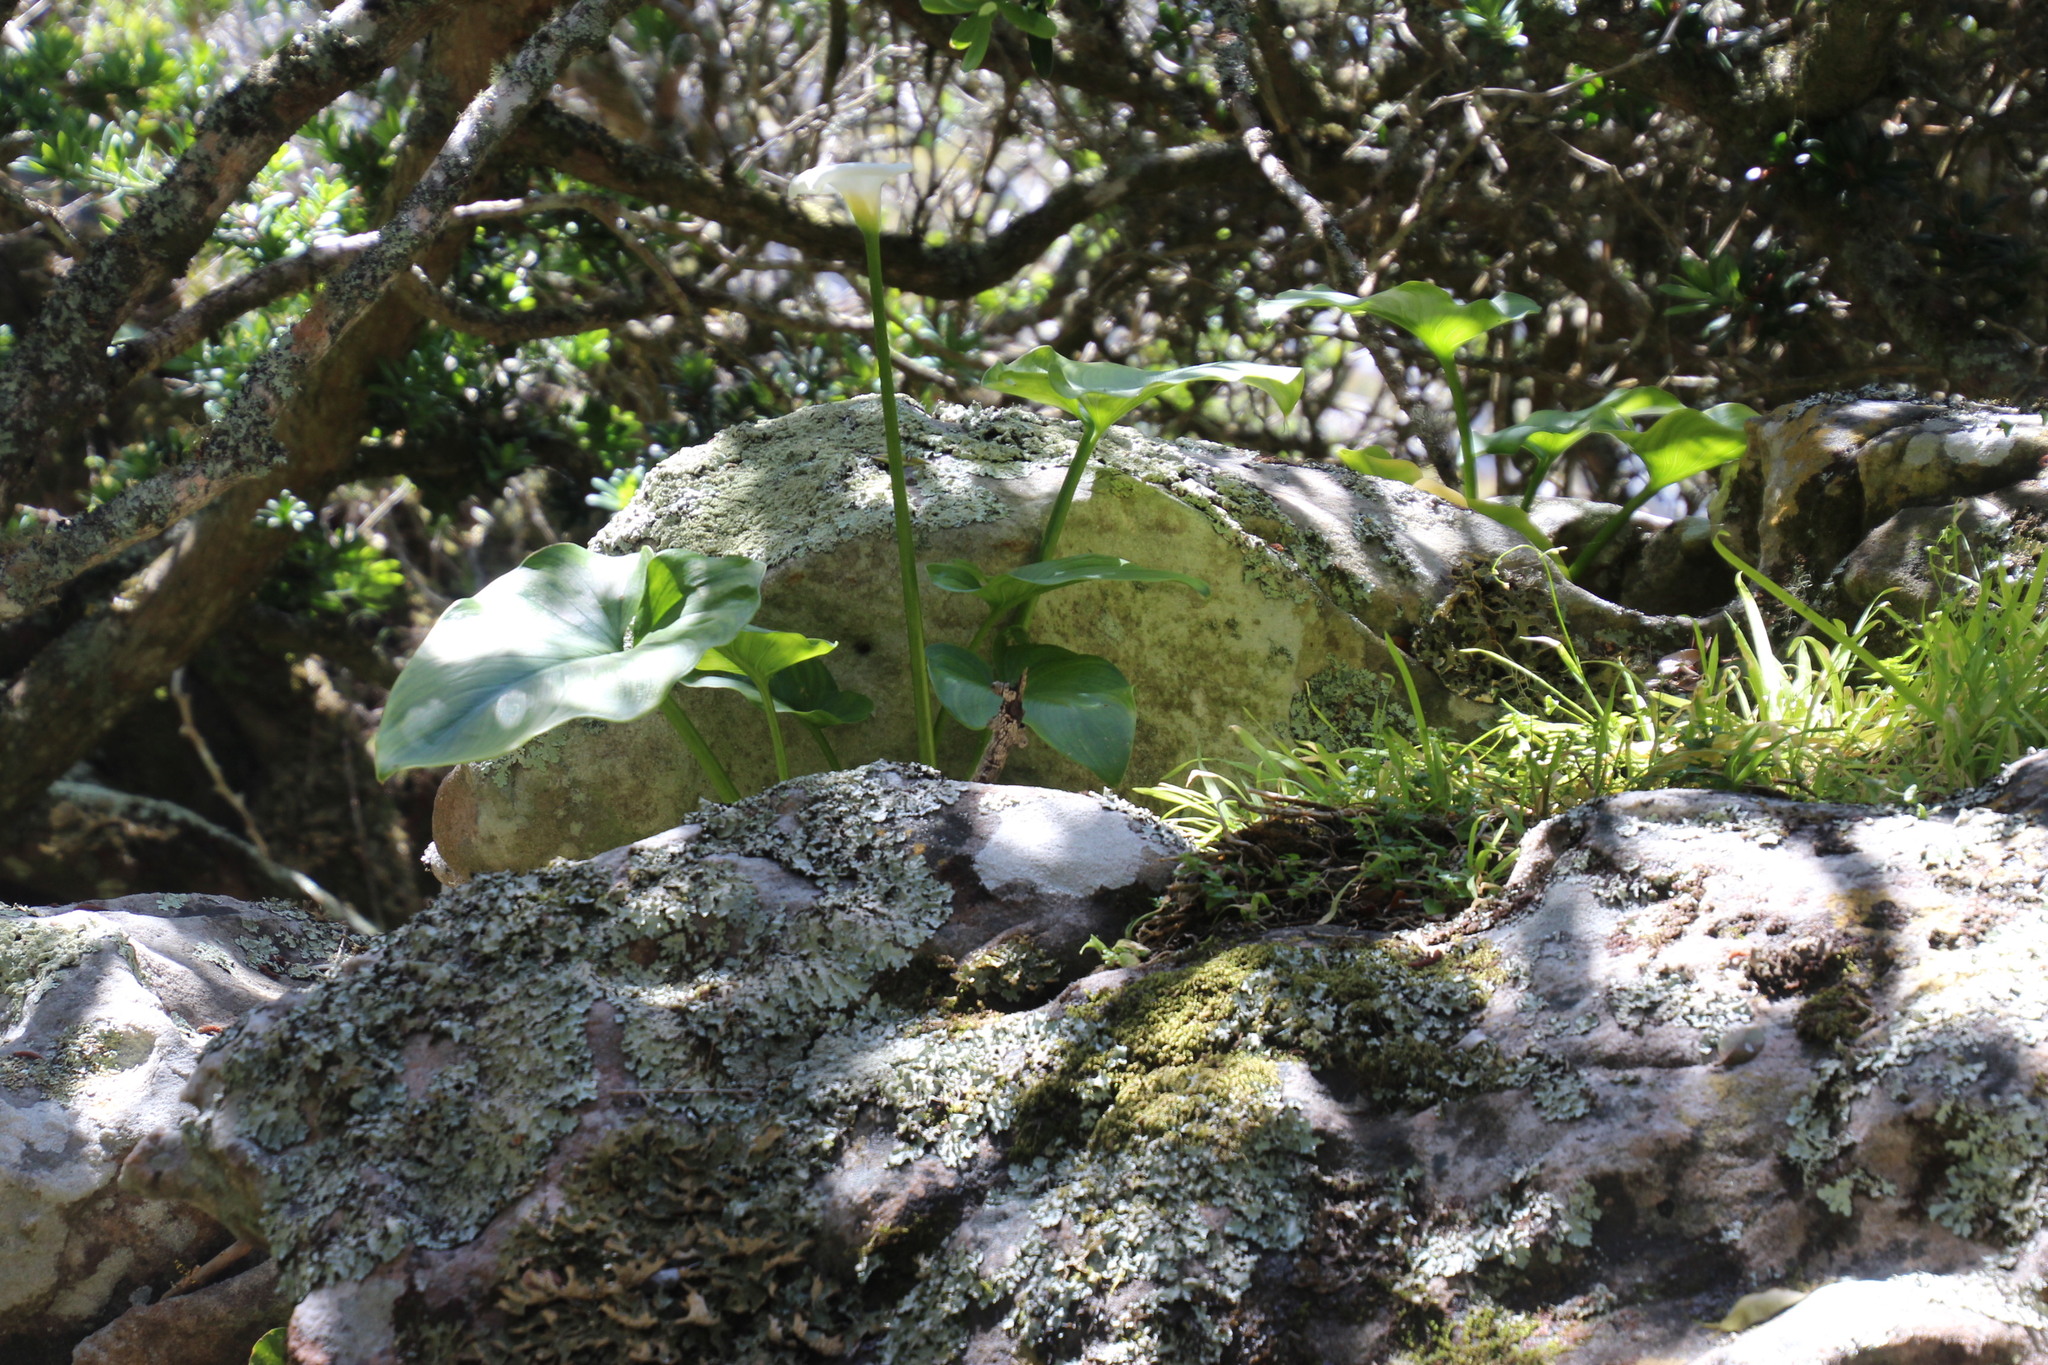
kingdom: Plantae
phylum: Tracheophyta
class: Liliopsida
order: Alismatales
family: Araceae
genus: Zantedeschia
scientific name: Zantedeschia aethiopica
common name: Altar-lily
